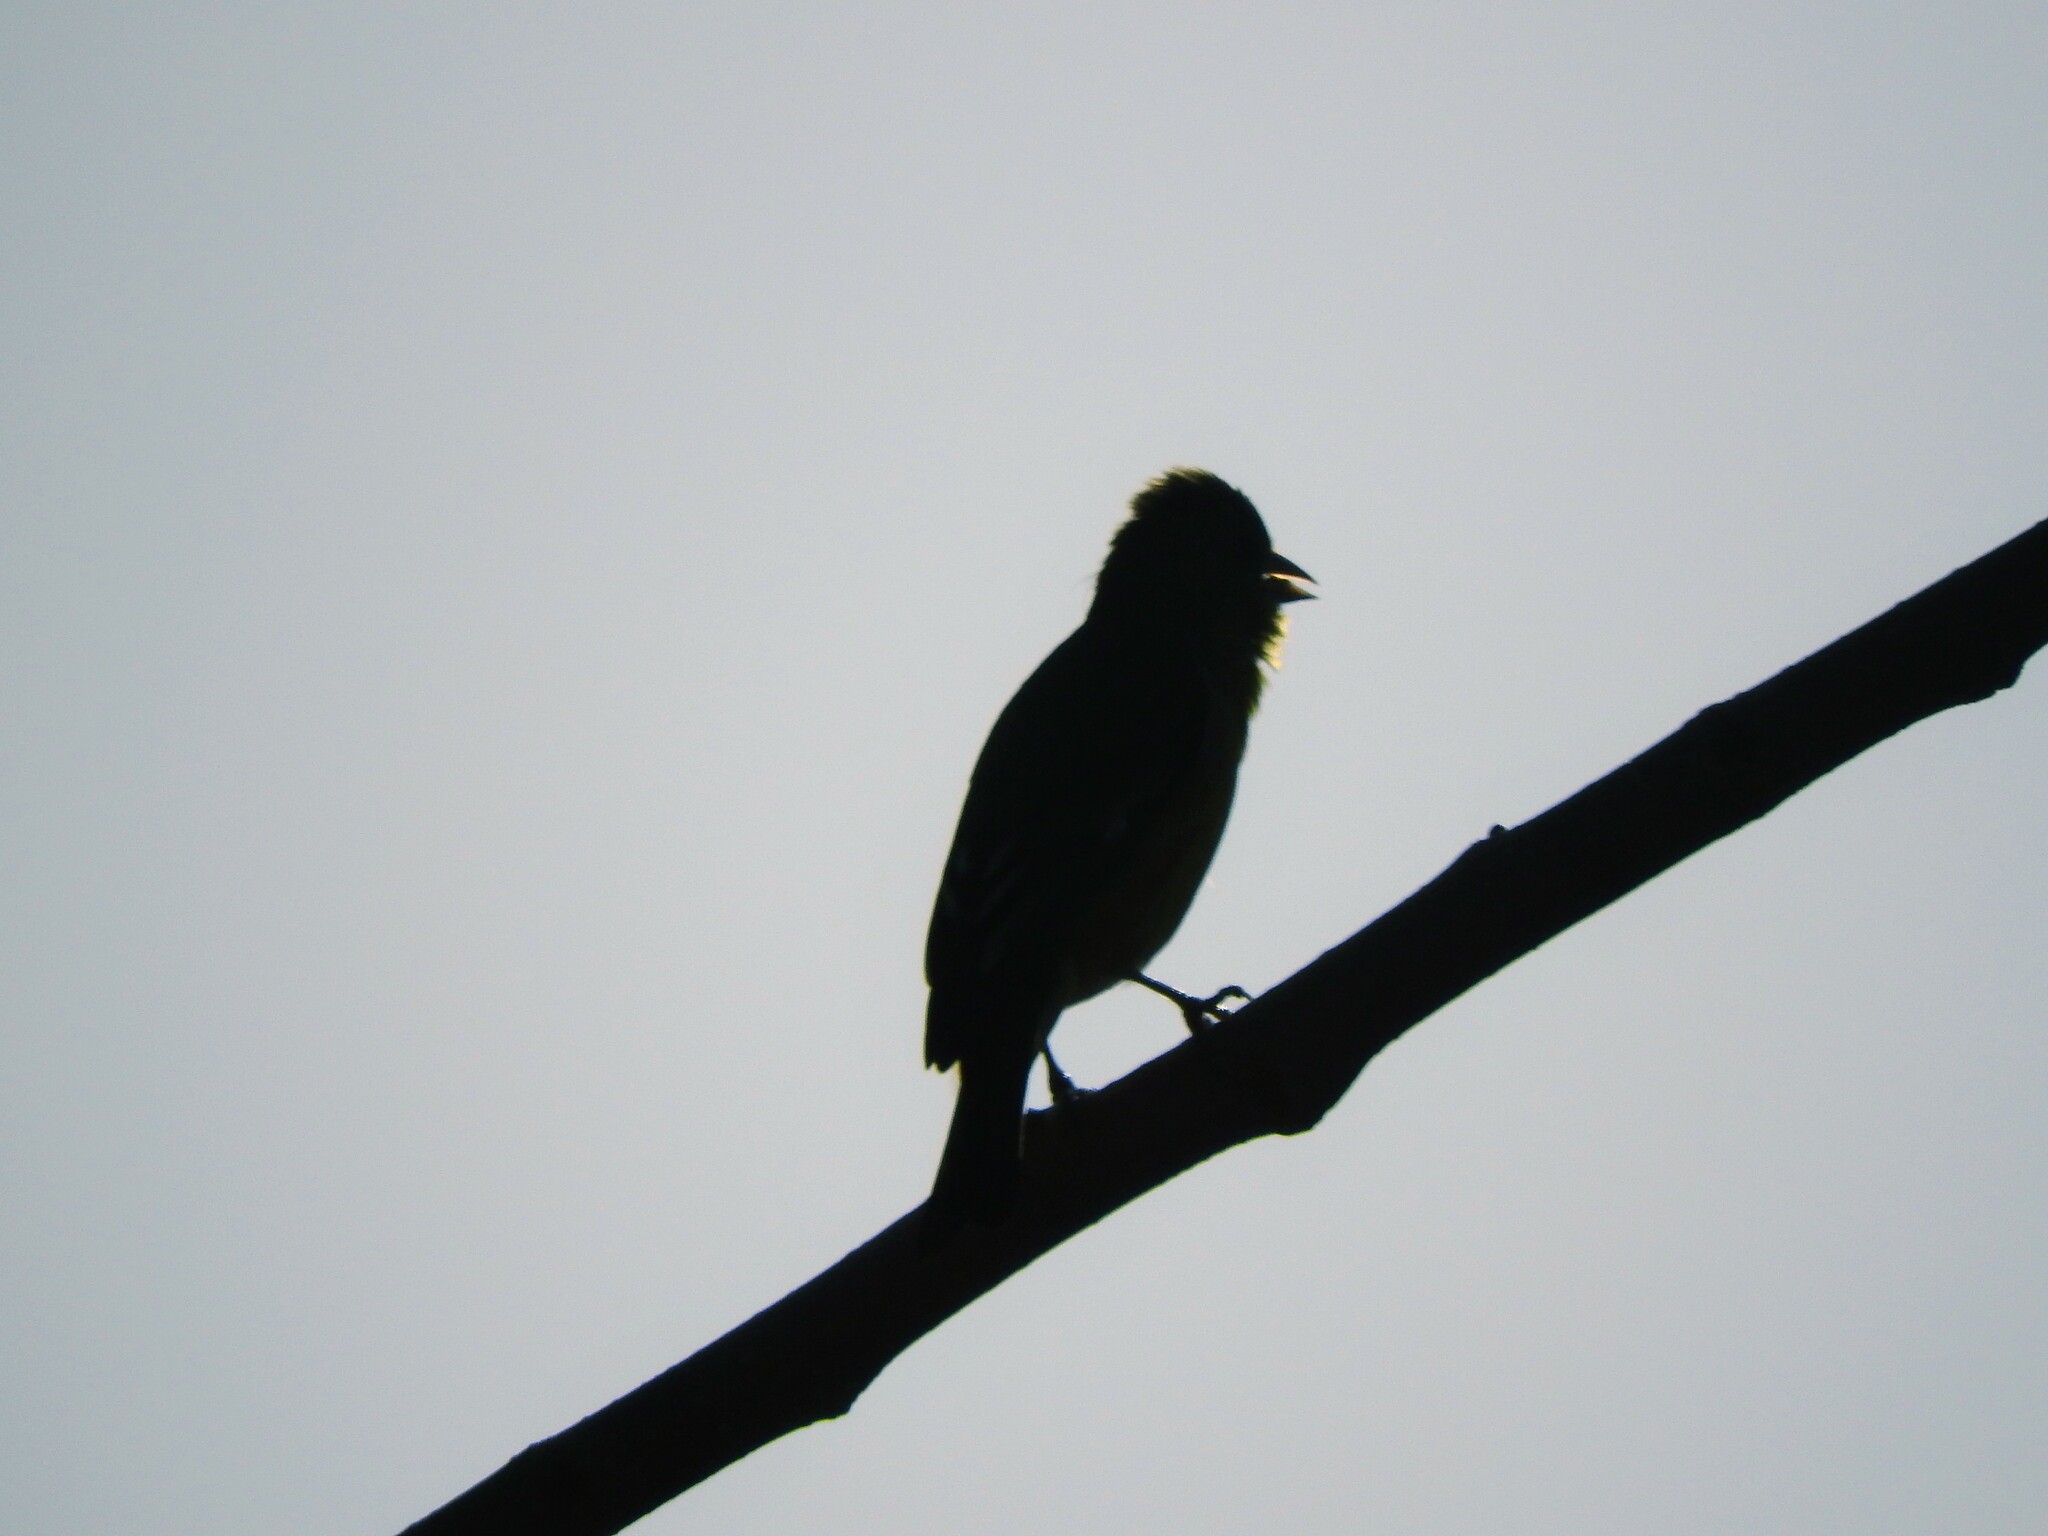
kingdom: Animalia
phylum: Chordata
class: Aves
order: Passeriformes
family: Fringillidae
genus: Spinus
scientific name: Spinus psaltria
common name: Lesser goldfinch
